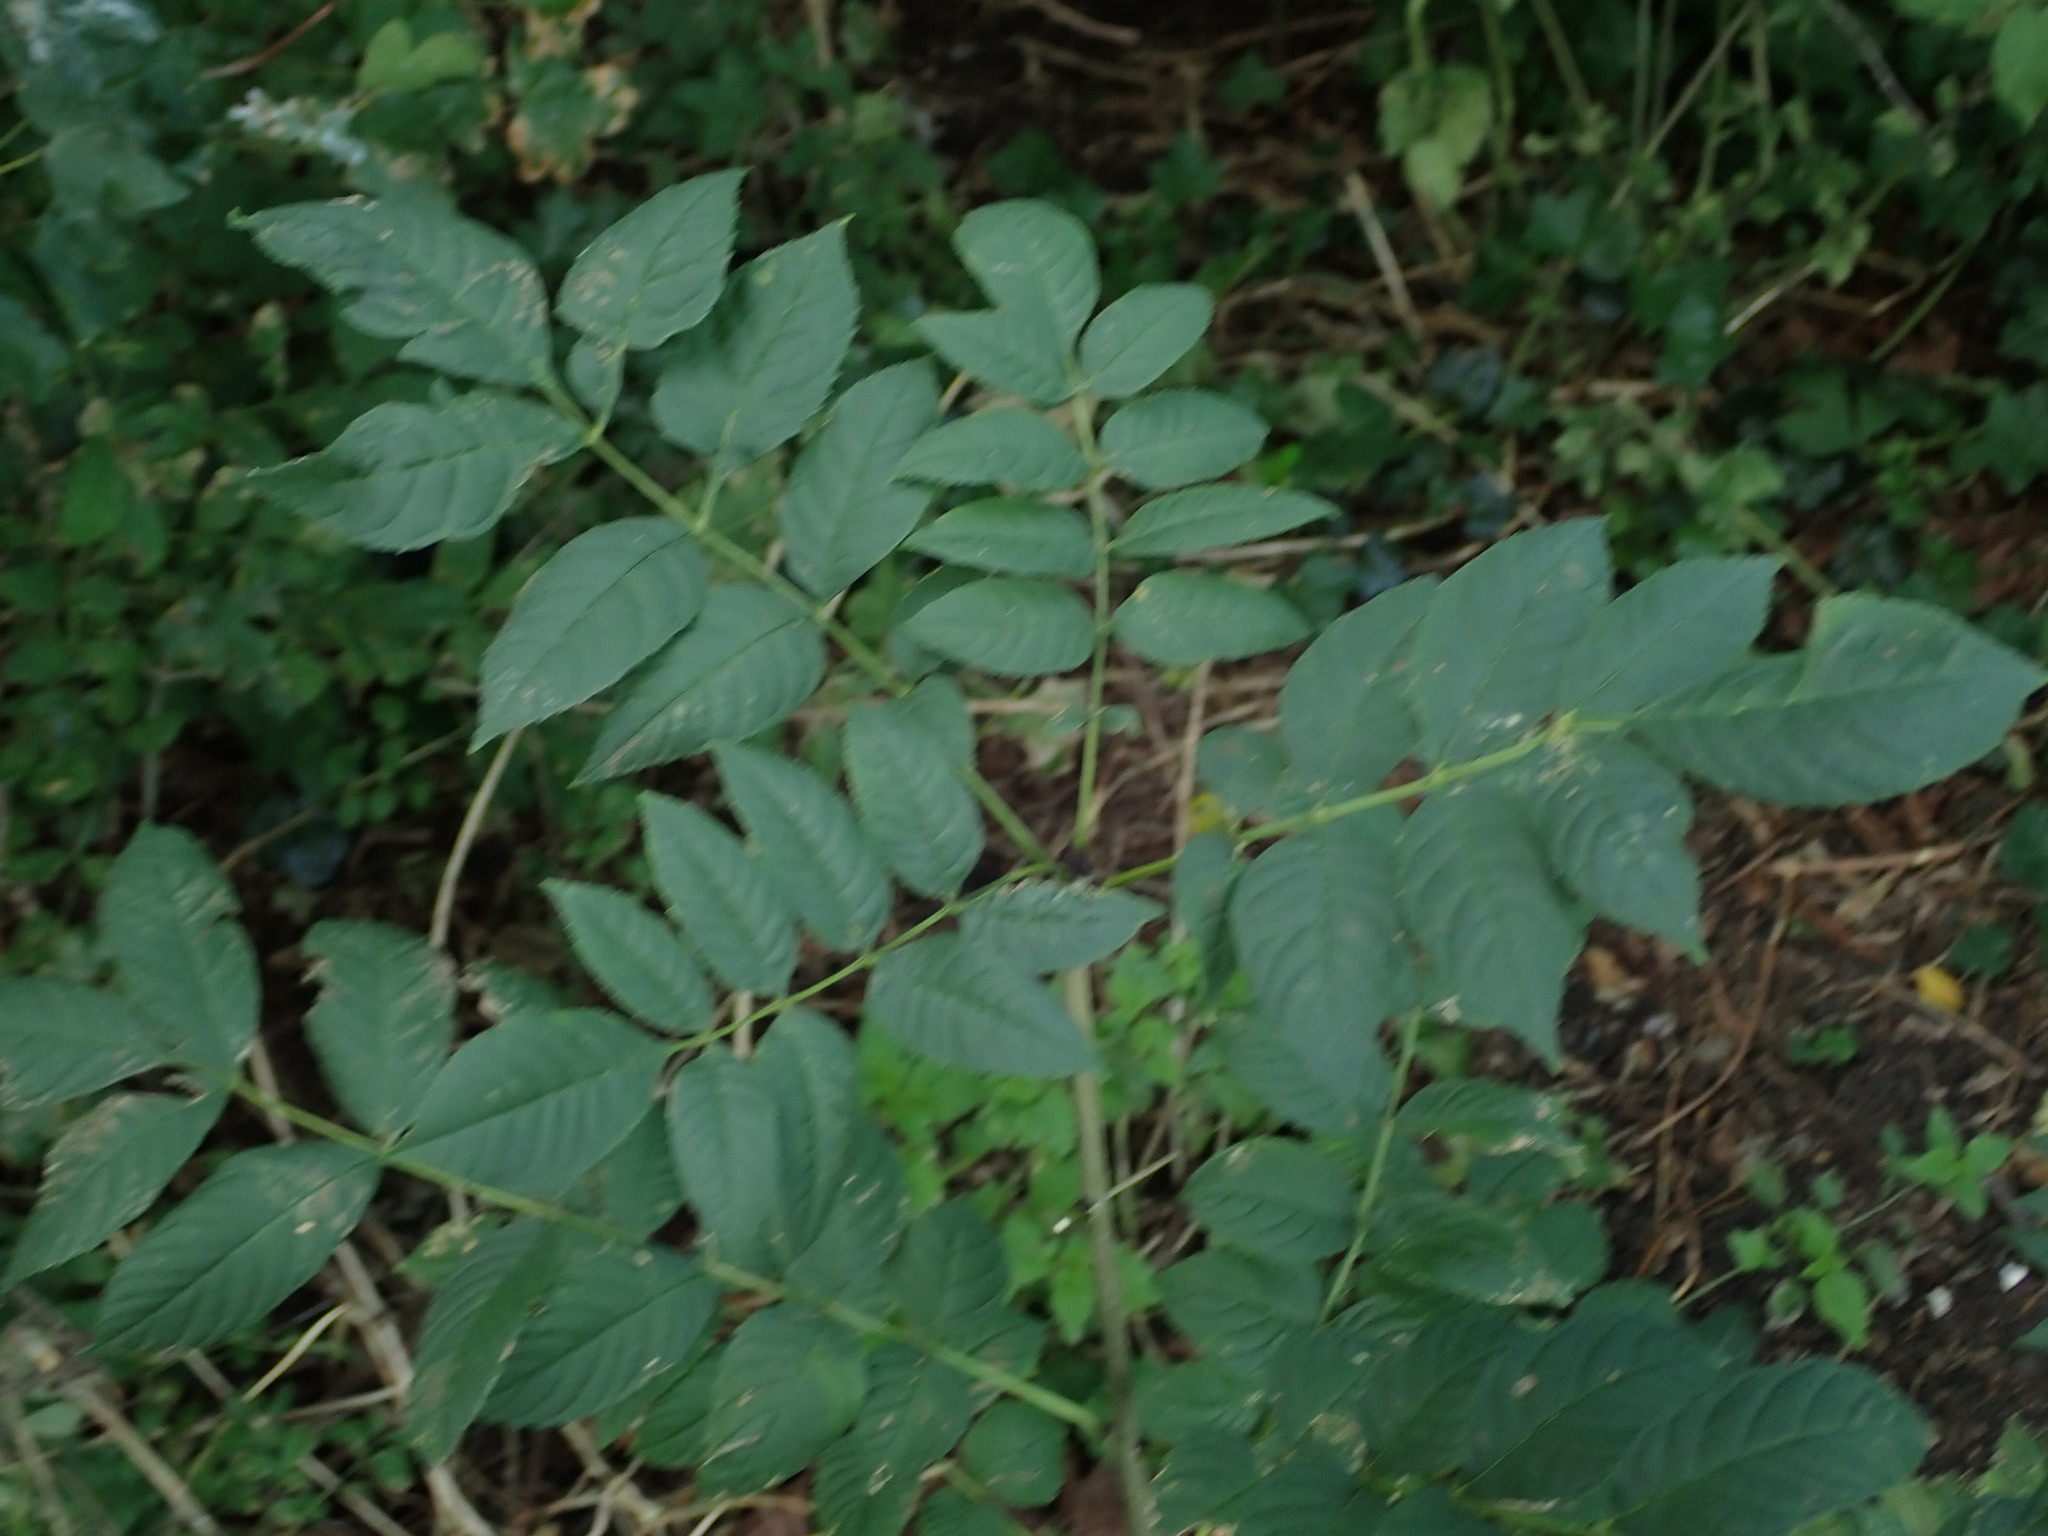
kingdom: Plantae
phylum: Tracheophyta
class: Magnoliopsida
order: Lamiales
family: Oleaceae
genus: Fraxinus
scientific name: Fraxinus excelsior
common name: European ash
